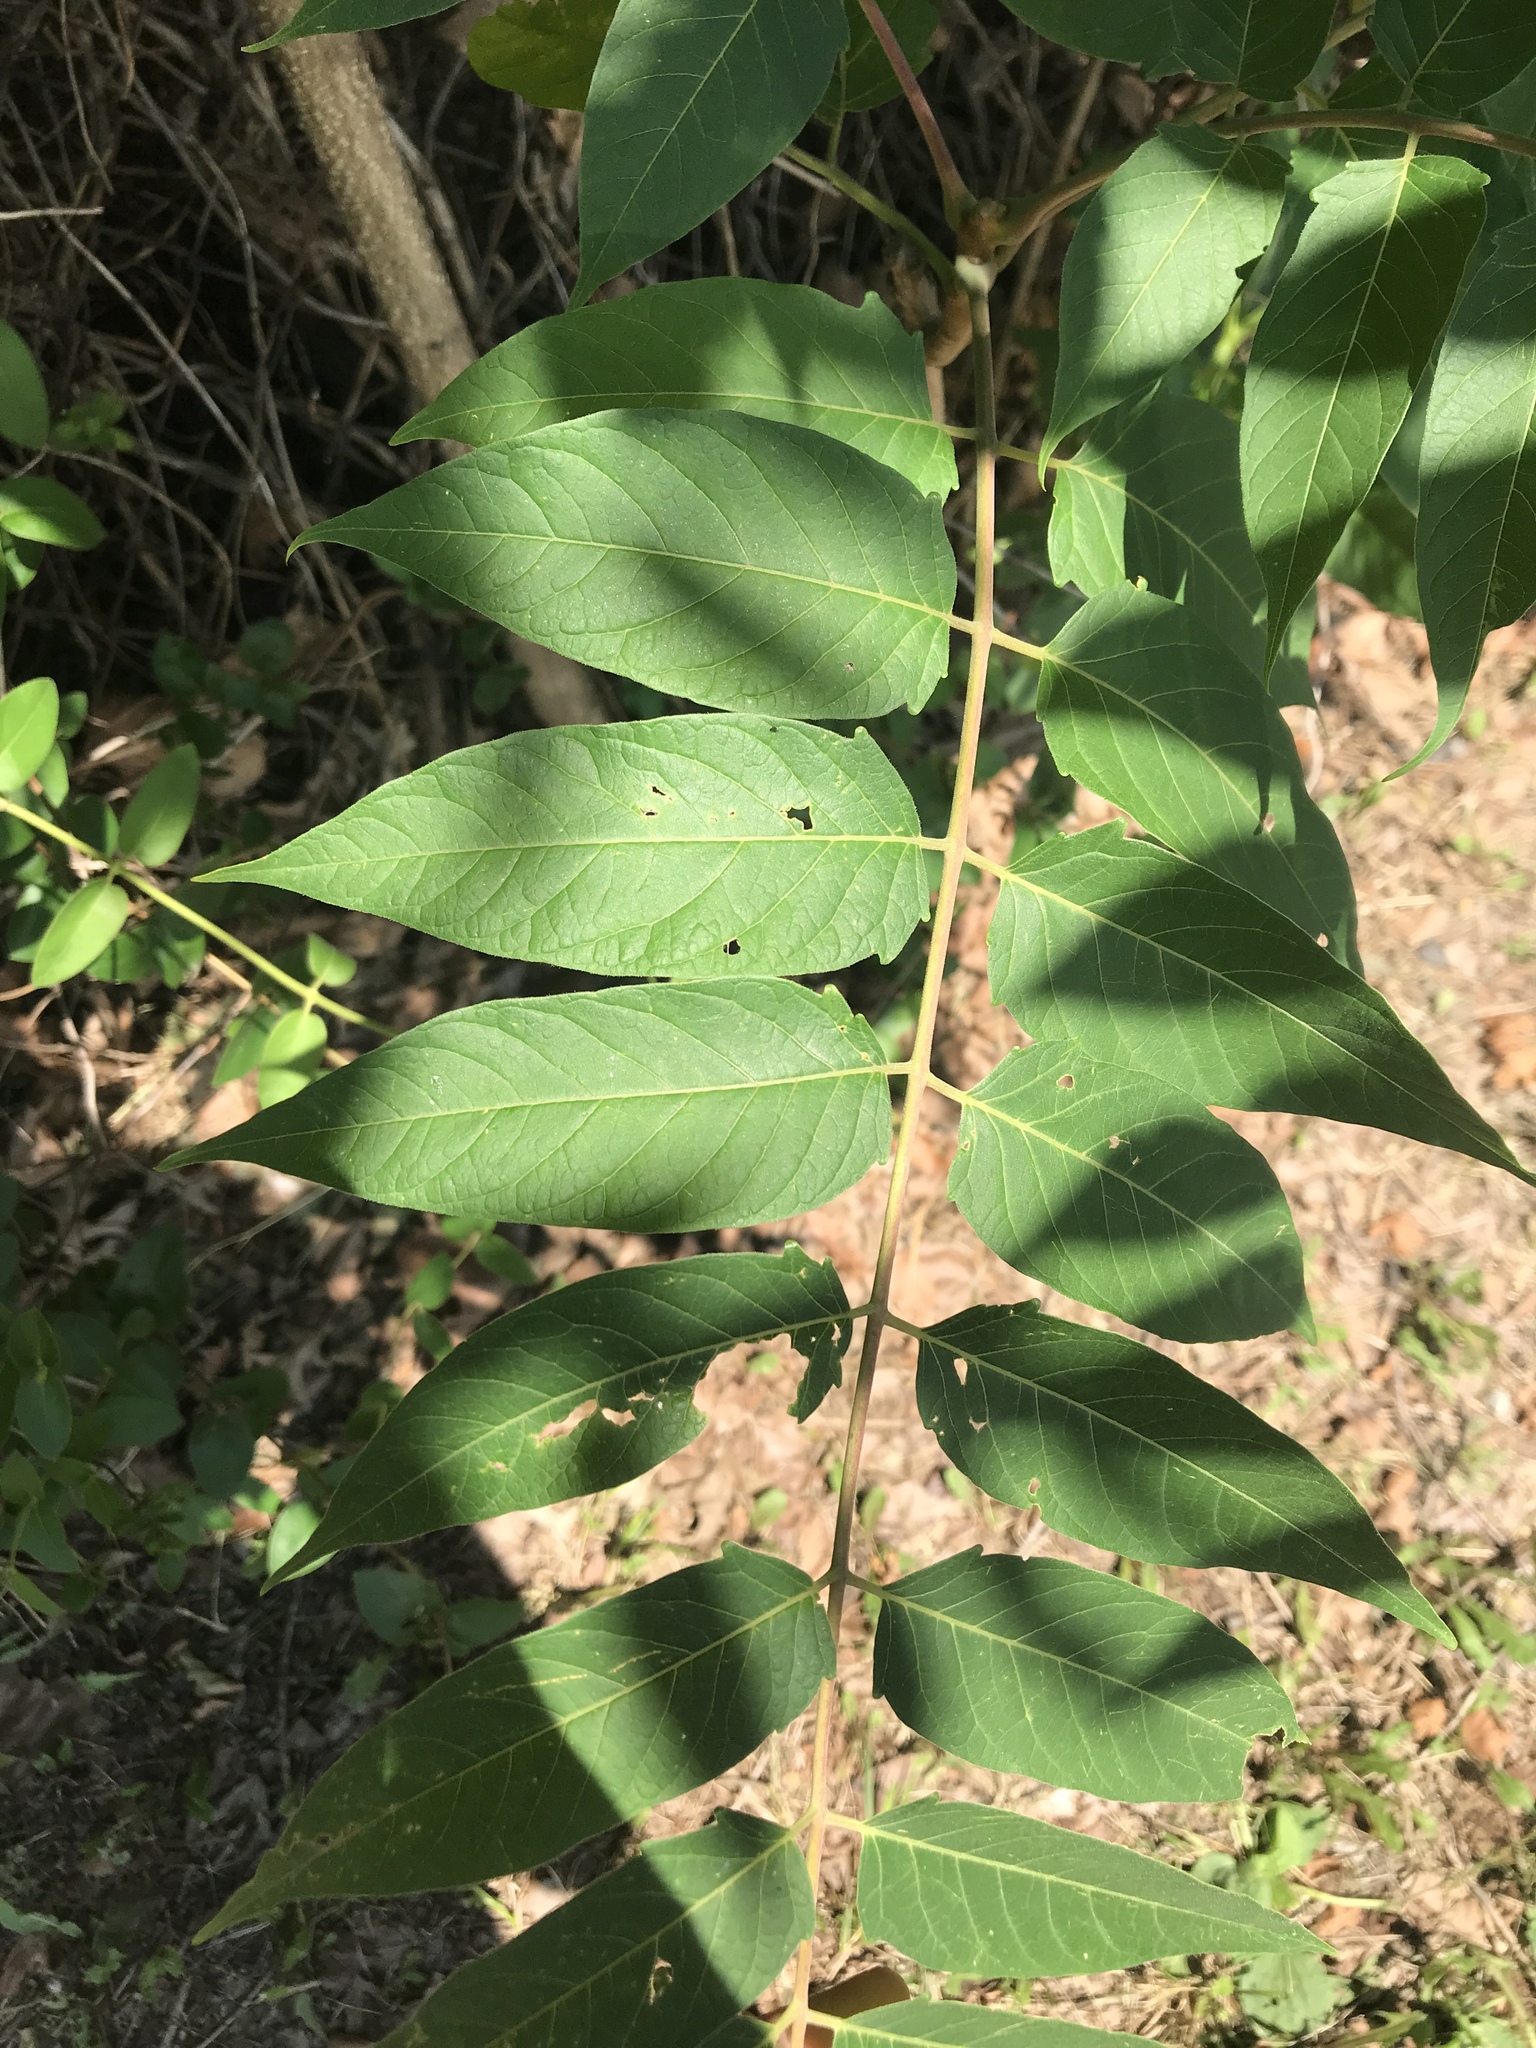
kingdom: Plantae
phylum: Tracheophyta
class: Magnoliopsida
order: Sapindales
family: Simaroubaceae
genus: Ailanthus
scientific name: Ailanthus altissima
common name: Tree-of-heaven
